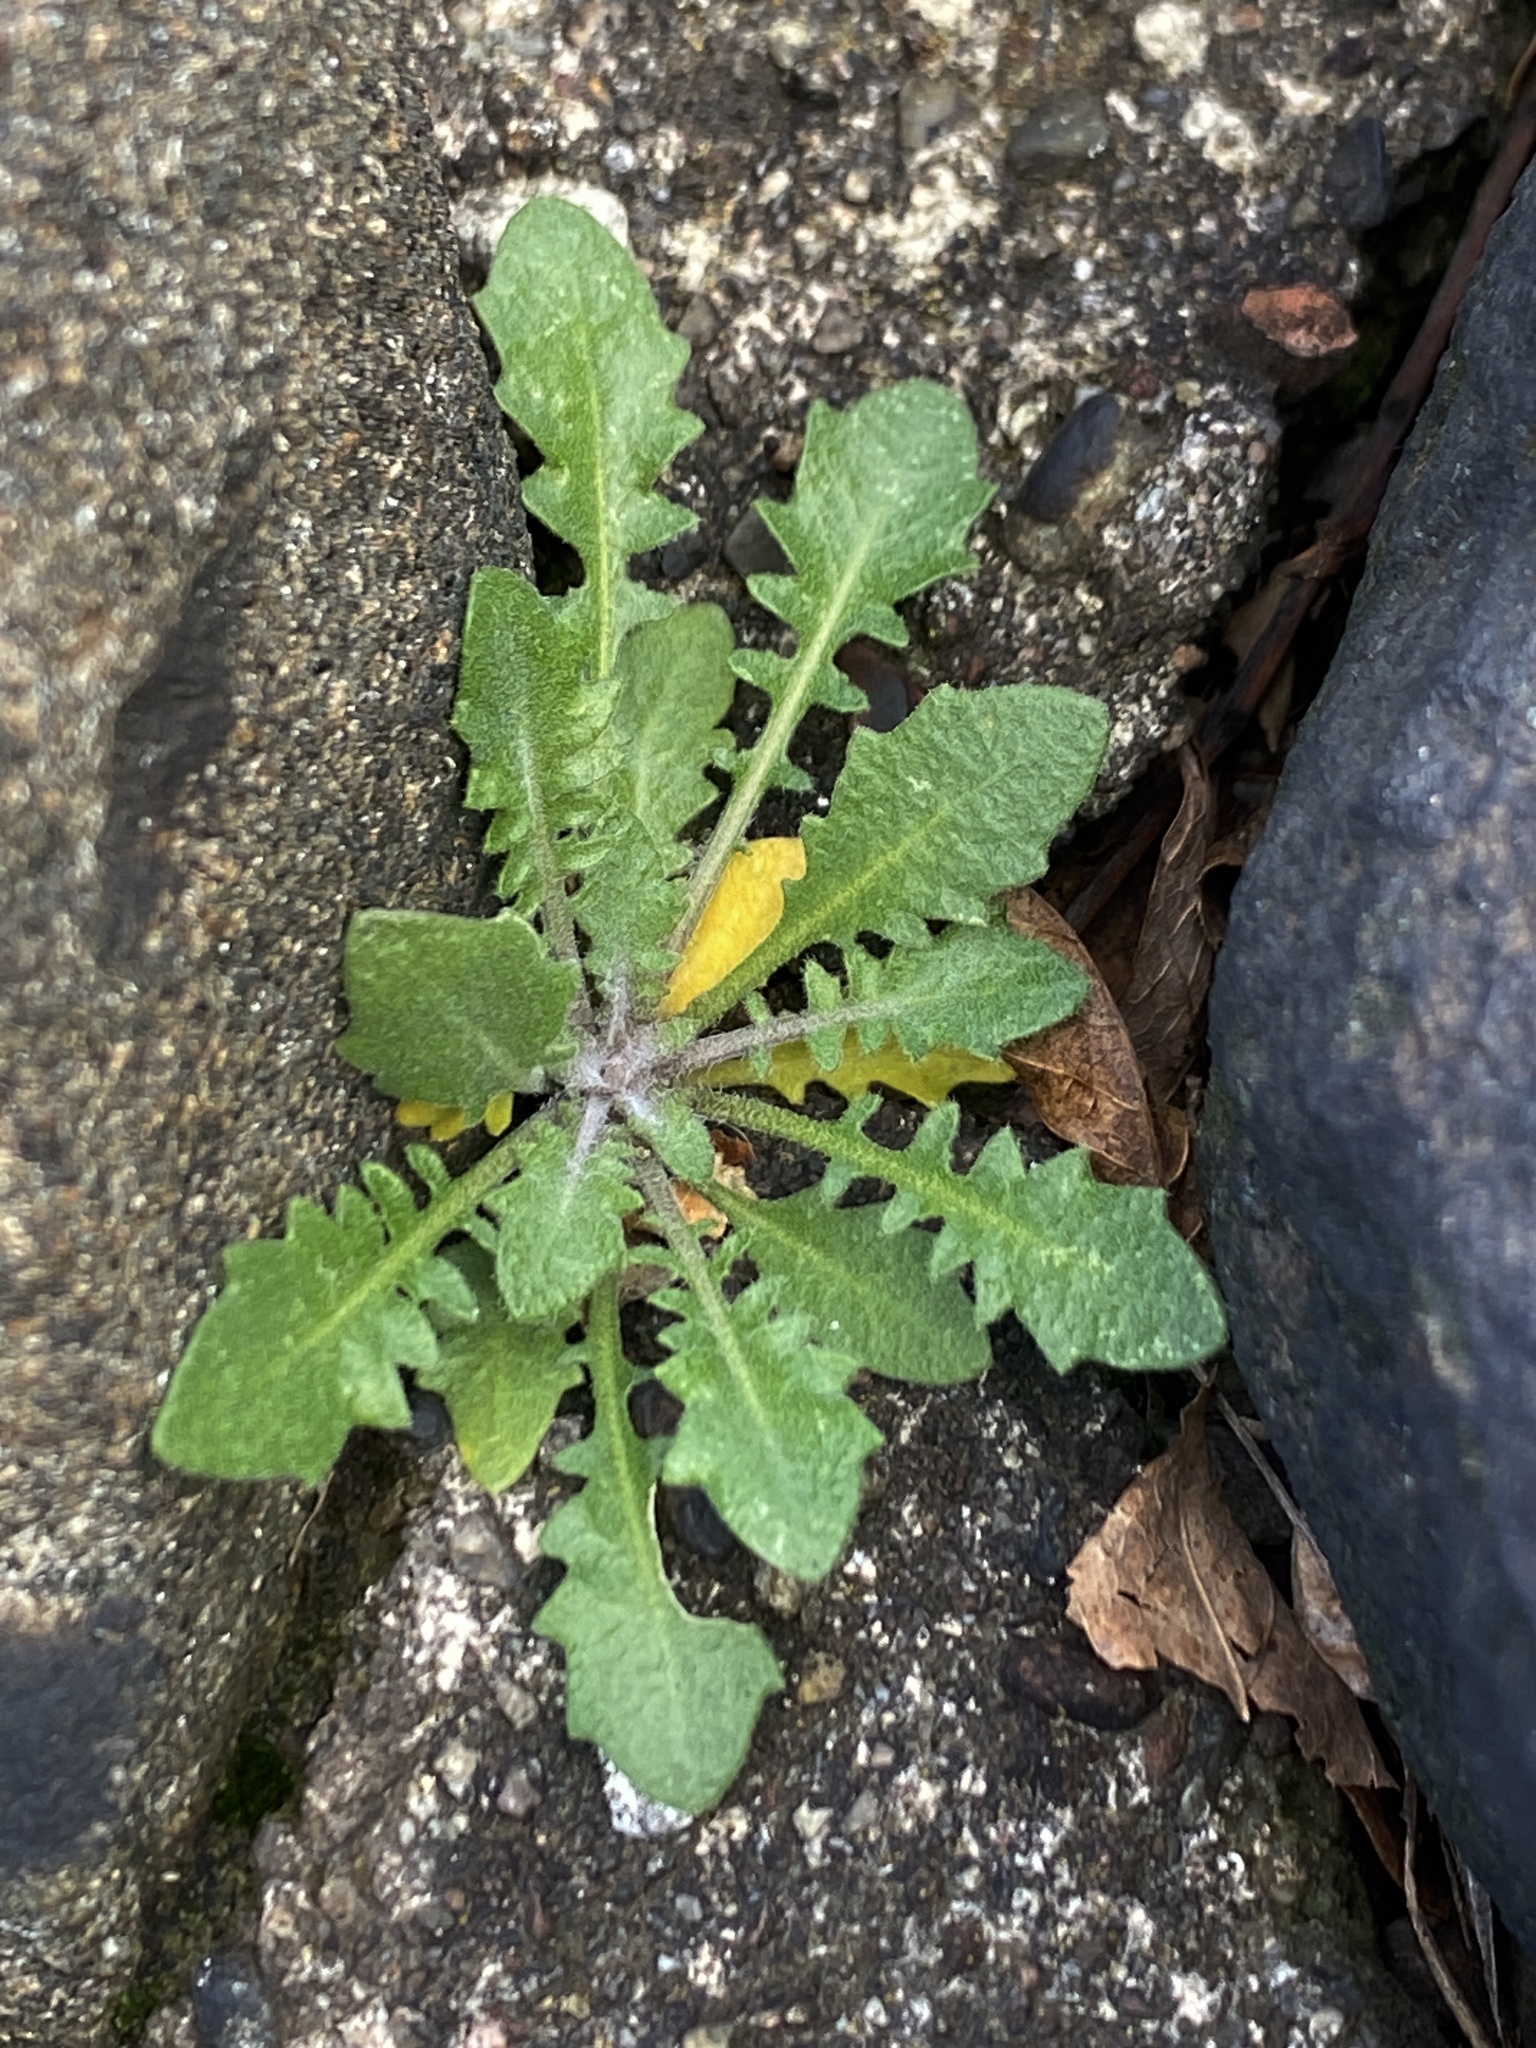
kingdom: Plantae
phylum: Tracheophyta
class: Magnoliopsida
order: Brassicales
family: Brassicaceae
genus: Arabidopsis
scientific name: Arabidopsis lyrata
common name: Lyrate rockcress
